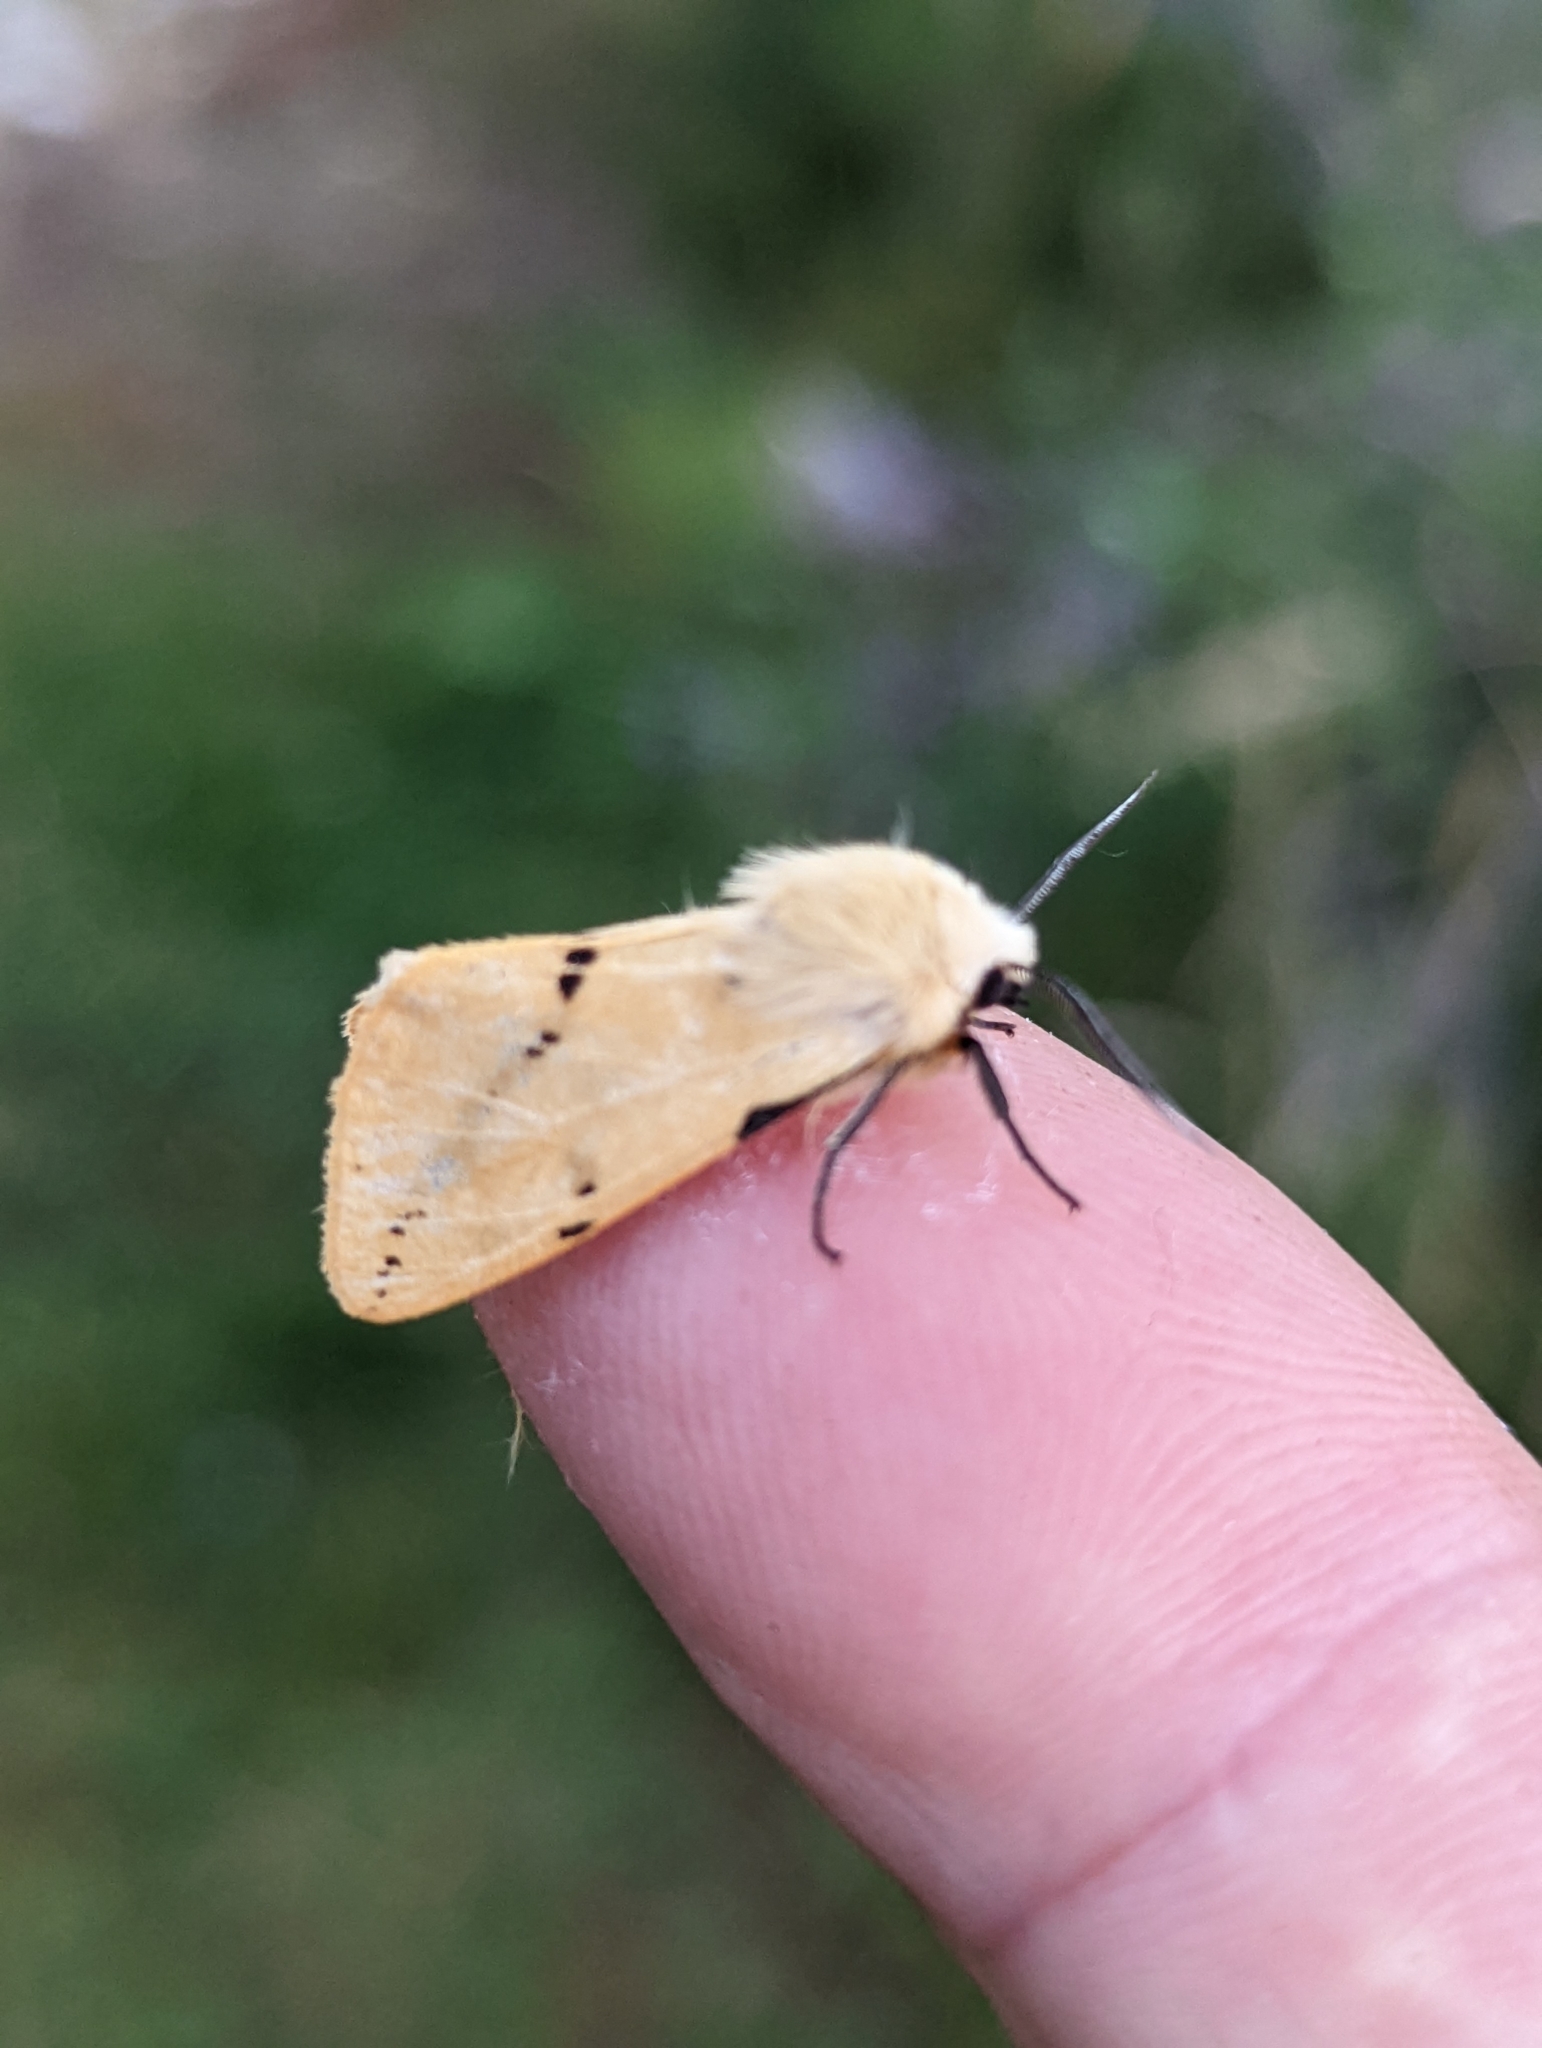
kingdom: Animalia
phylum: Arthropoda
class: Insecta
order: Lepidoptera
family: Erebidae
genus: Spilarctia
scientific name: Spilarctia lutea
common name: Buff ermine
